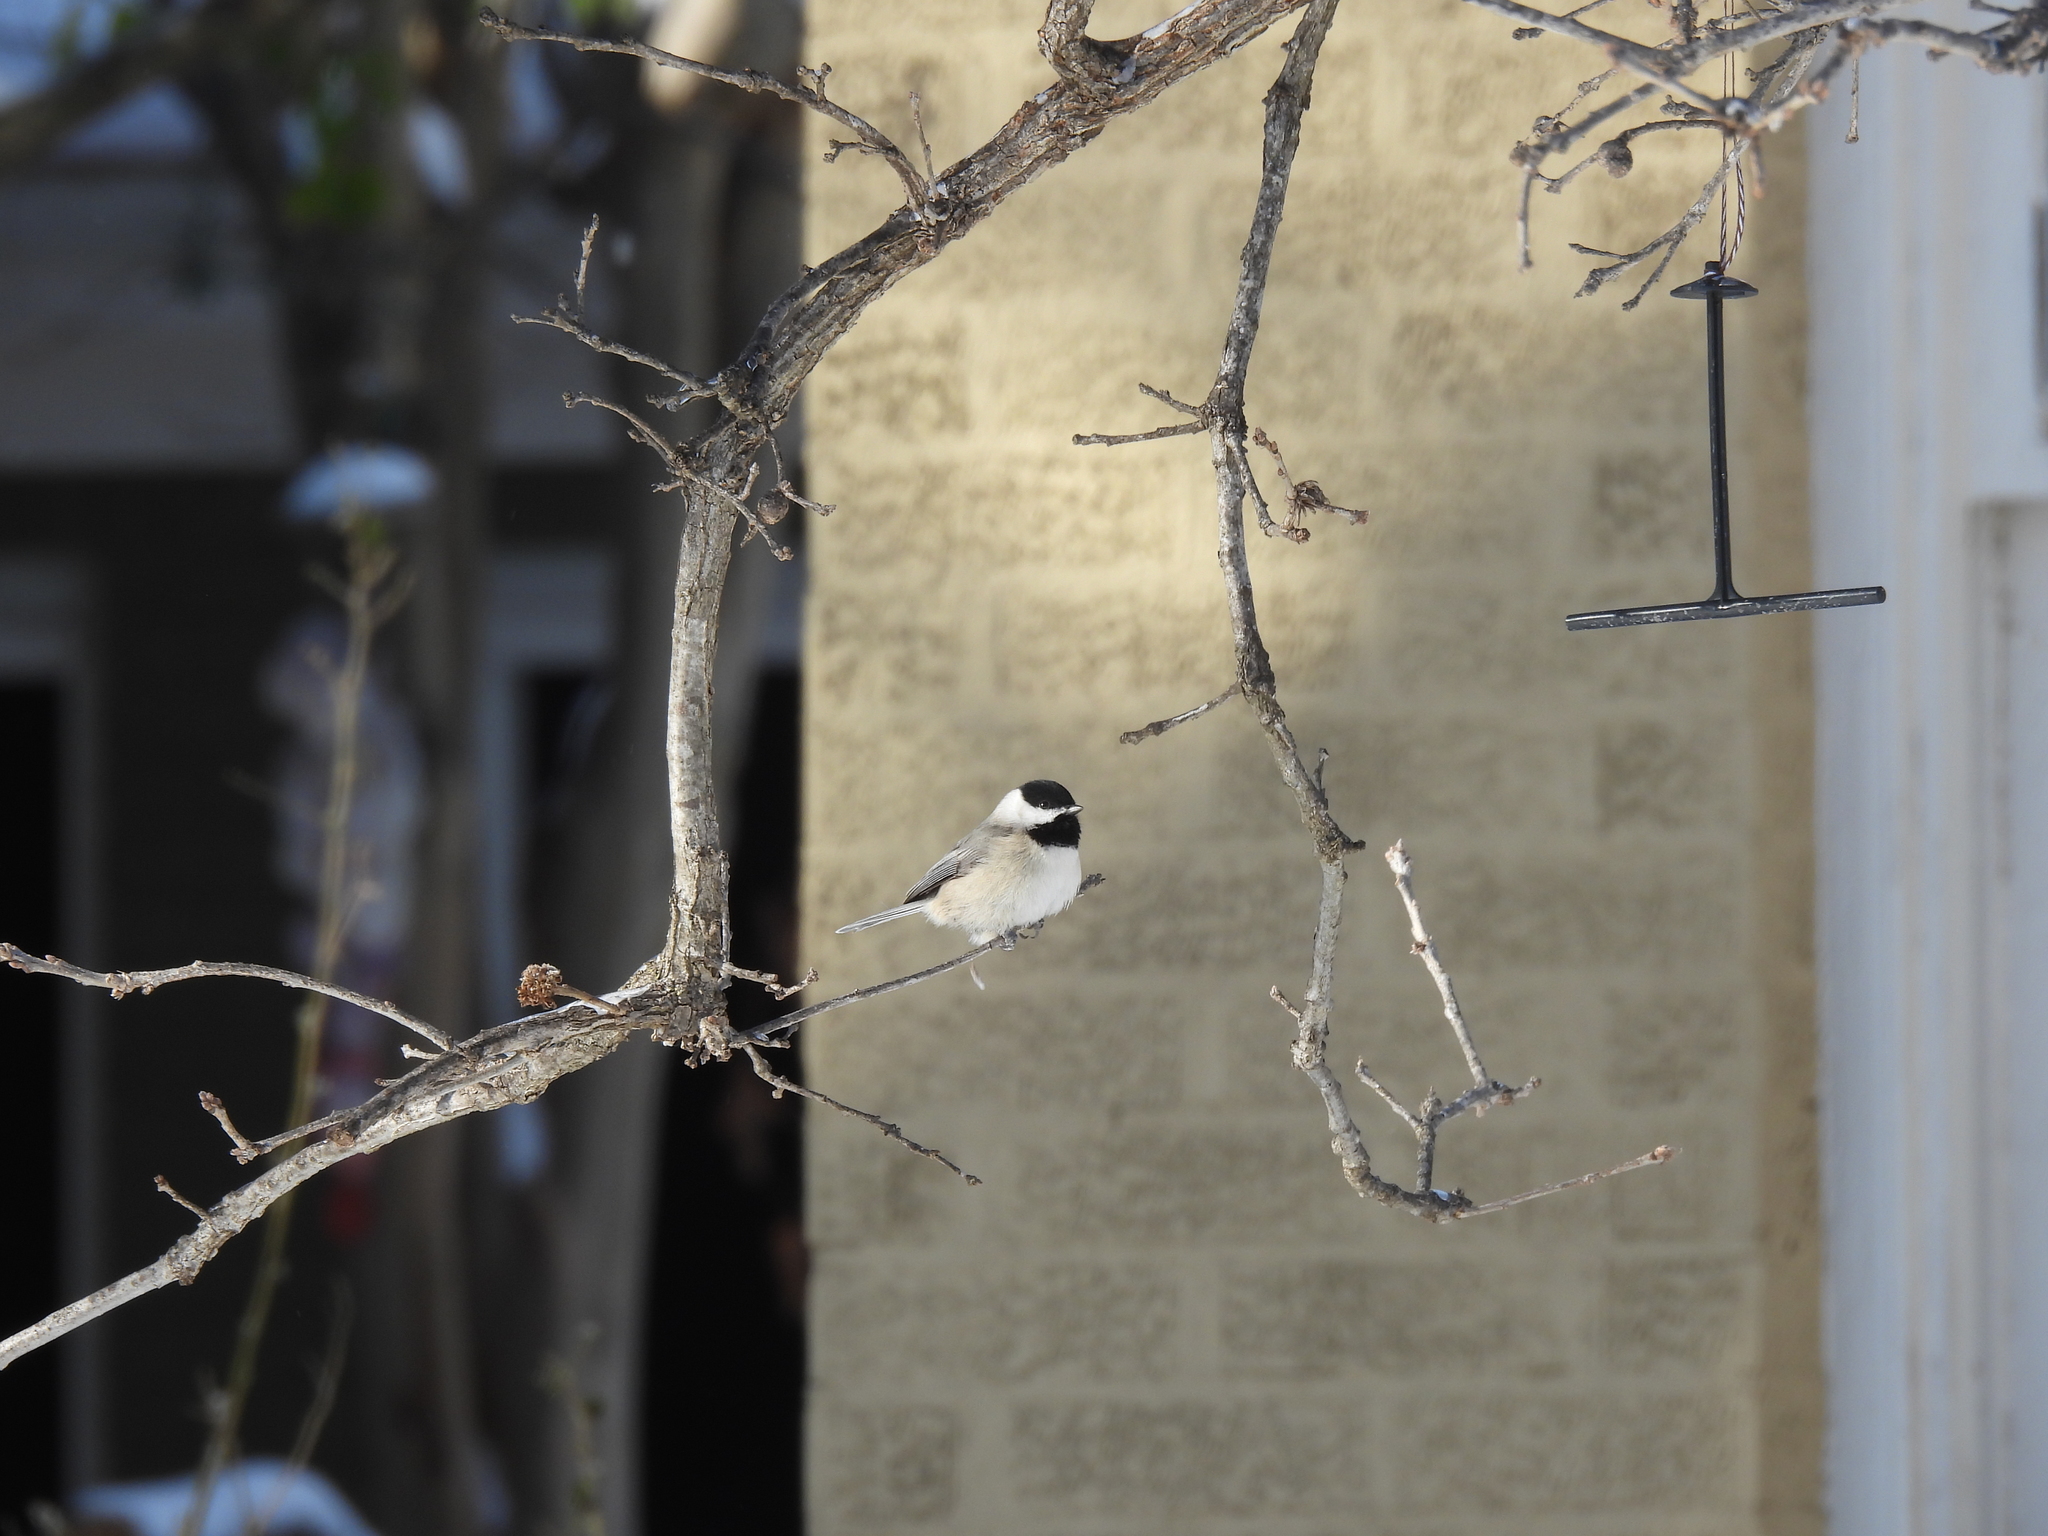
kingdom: Animalia
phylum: Chordata
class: Aves
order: Passeriformes
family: Paridae
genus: Poecile
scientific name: Poecile carolinensis
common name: Carolina chickadee
